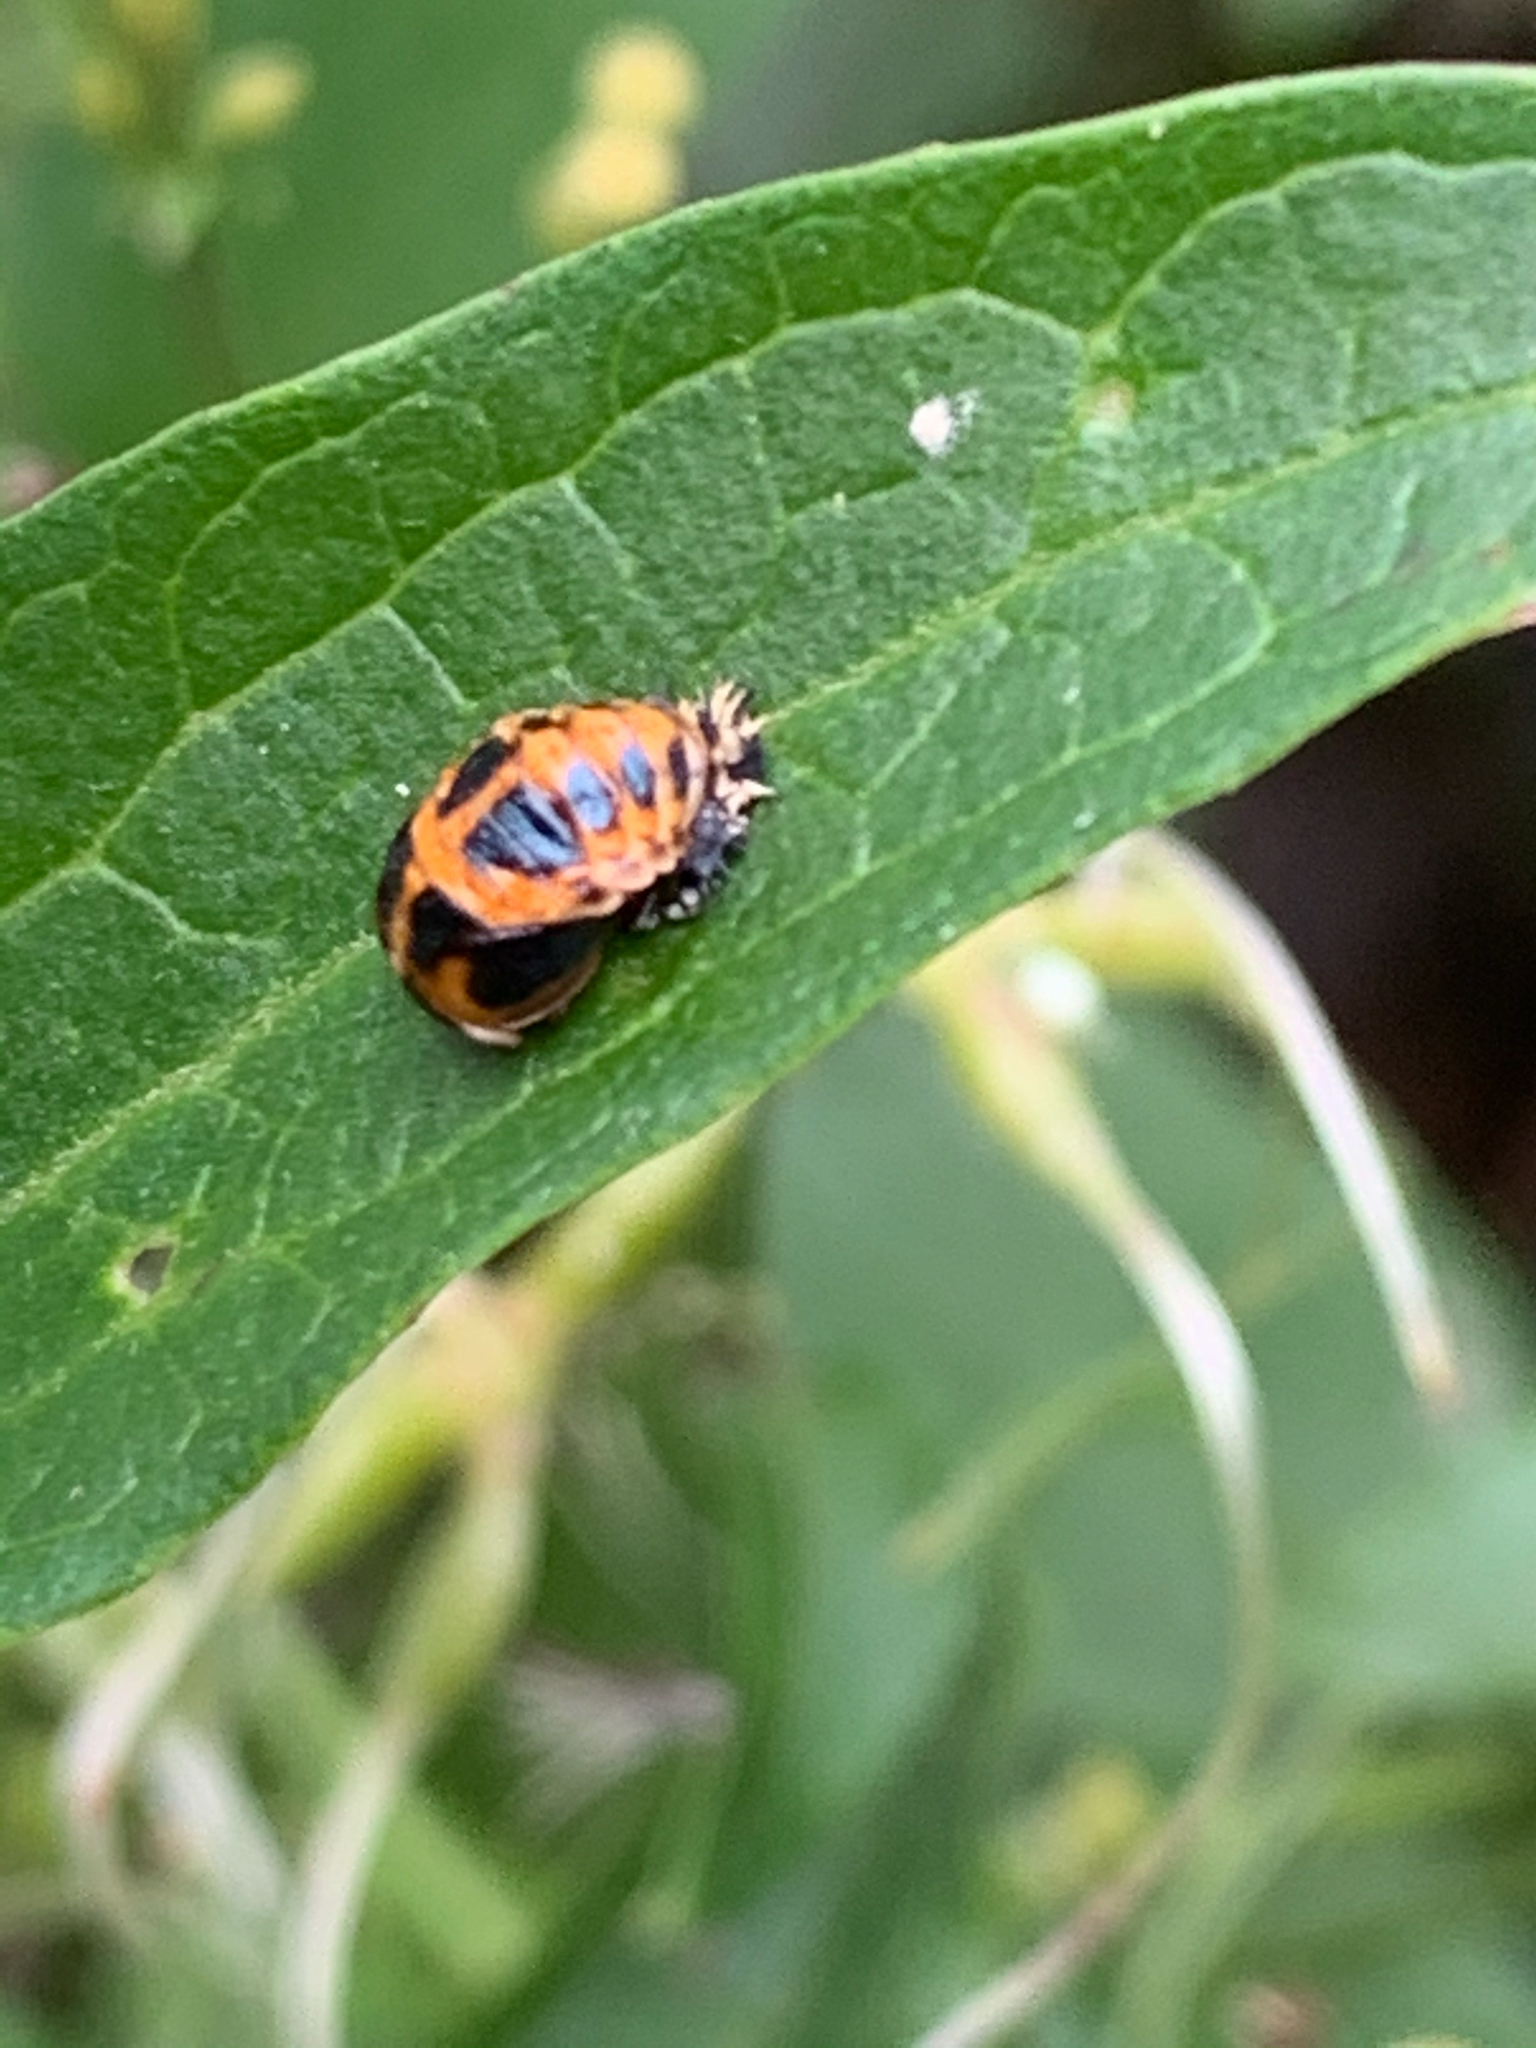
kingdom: Animalia
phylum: Arthropoda
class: Insecta
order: Coleoptera
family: Coccinellidae
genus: Harmonia
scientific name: Harmonia axyridis
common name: Harlequin ladybird
